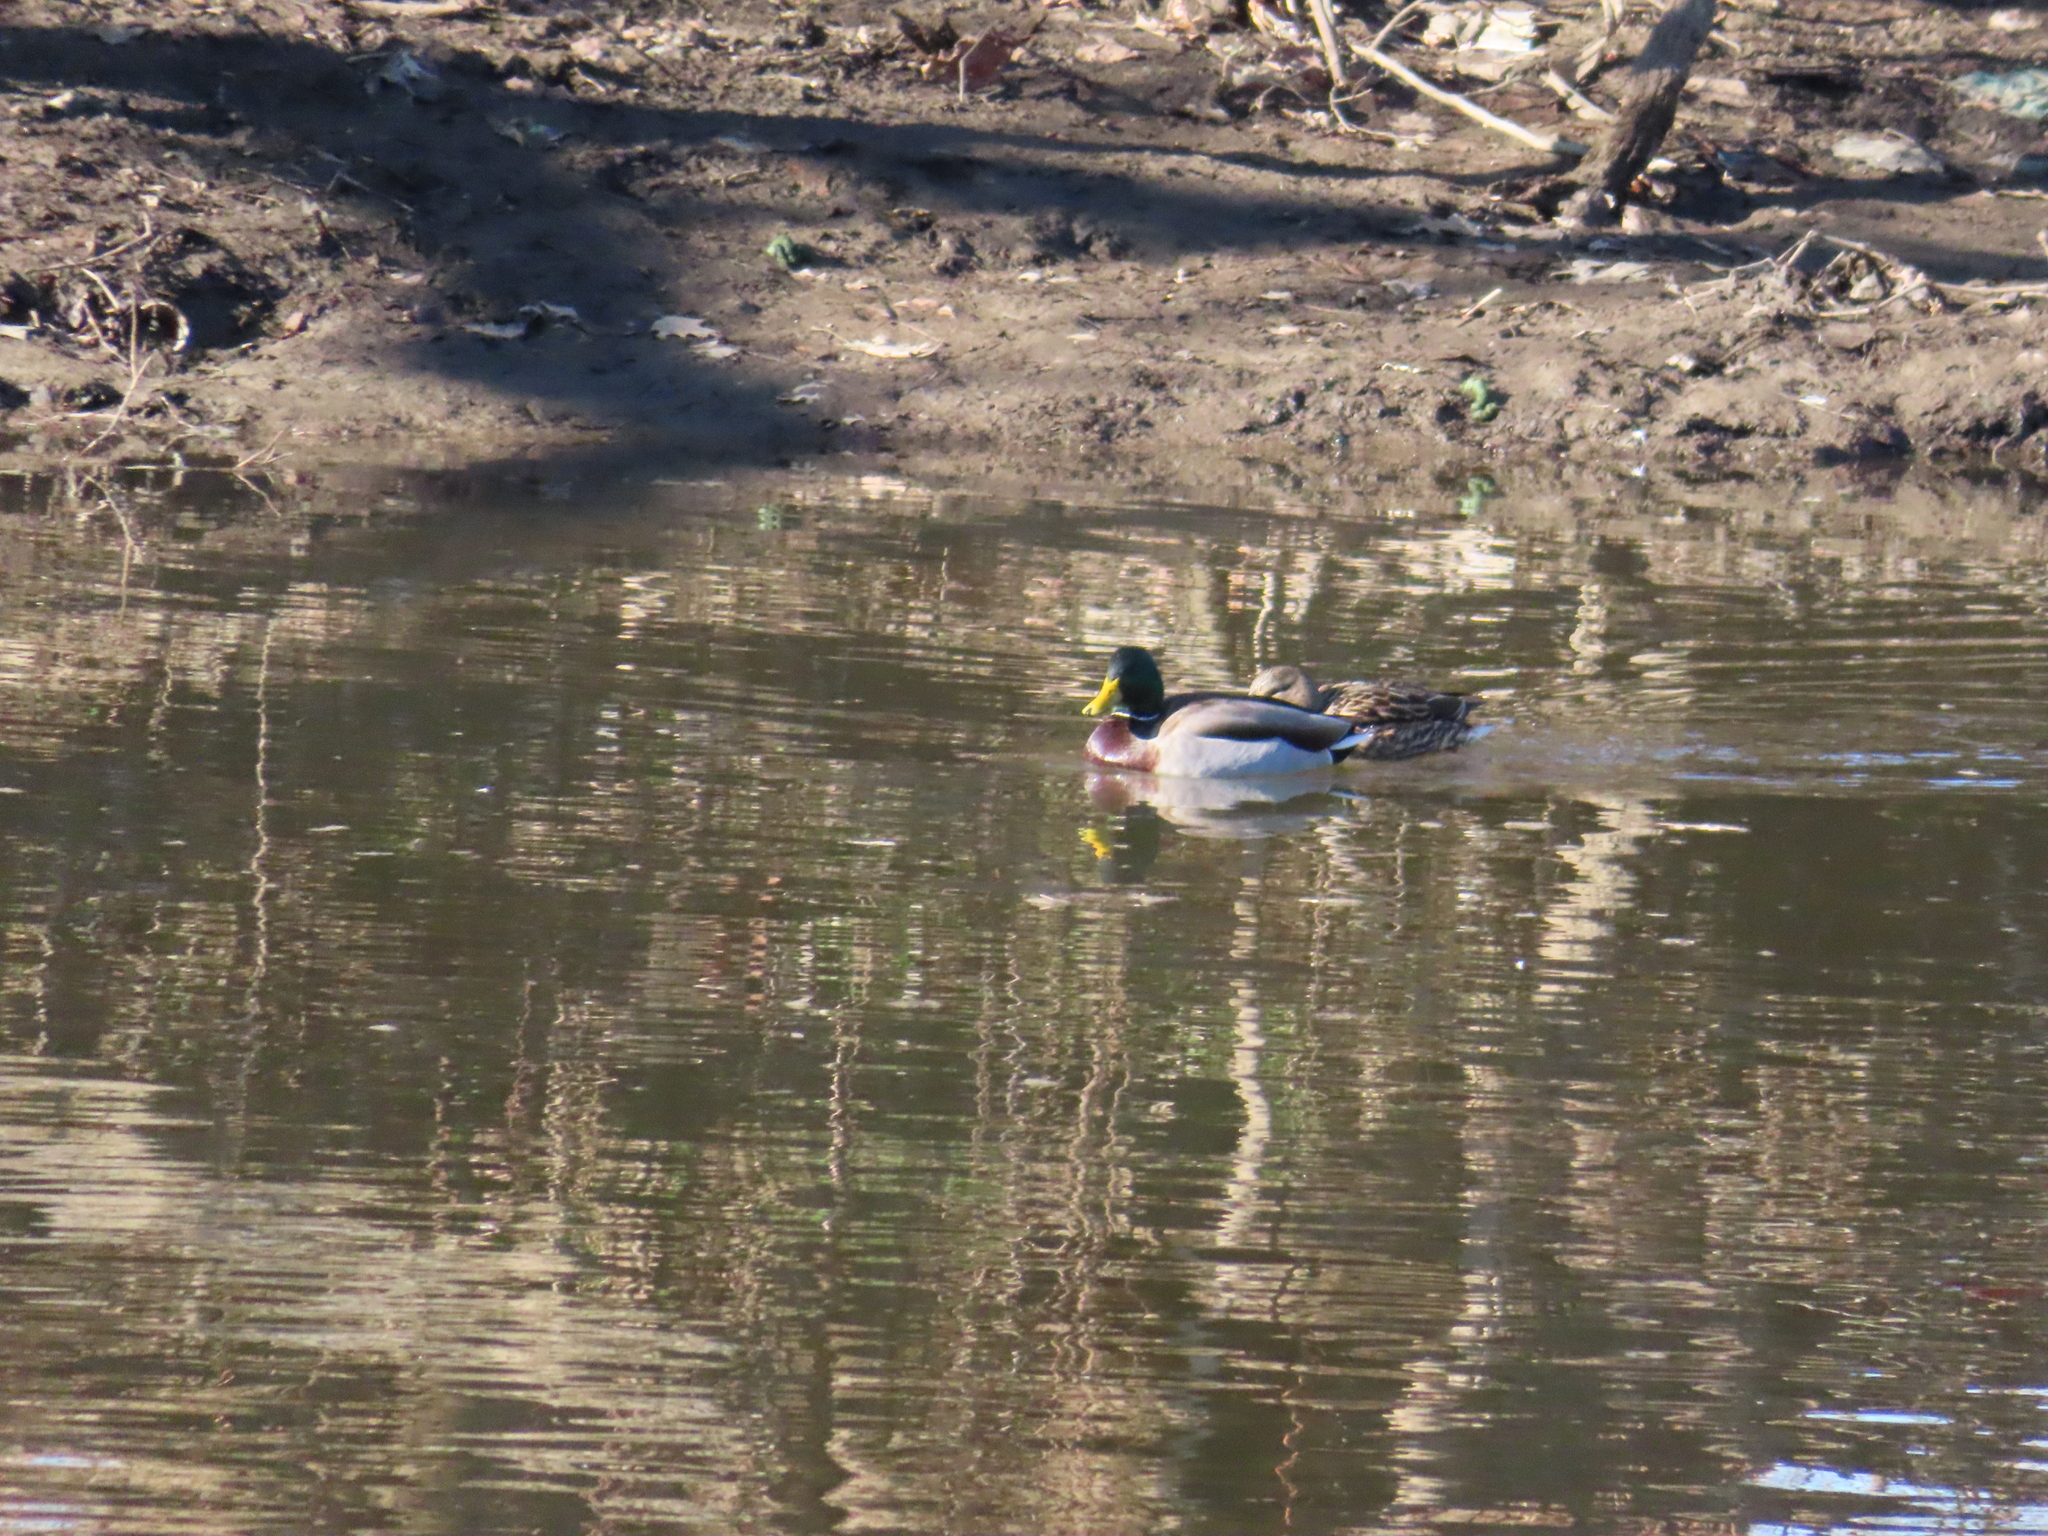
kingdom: Animalia
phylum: Chordata
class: Aves
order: Anseriformes
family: Anatidae
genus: Anas
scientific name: Anas platyrhynchos
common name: Mallard
